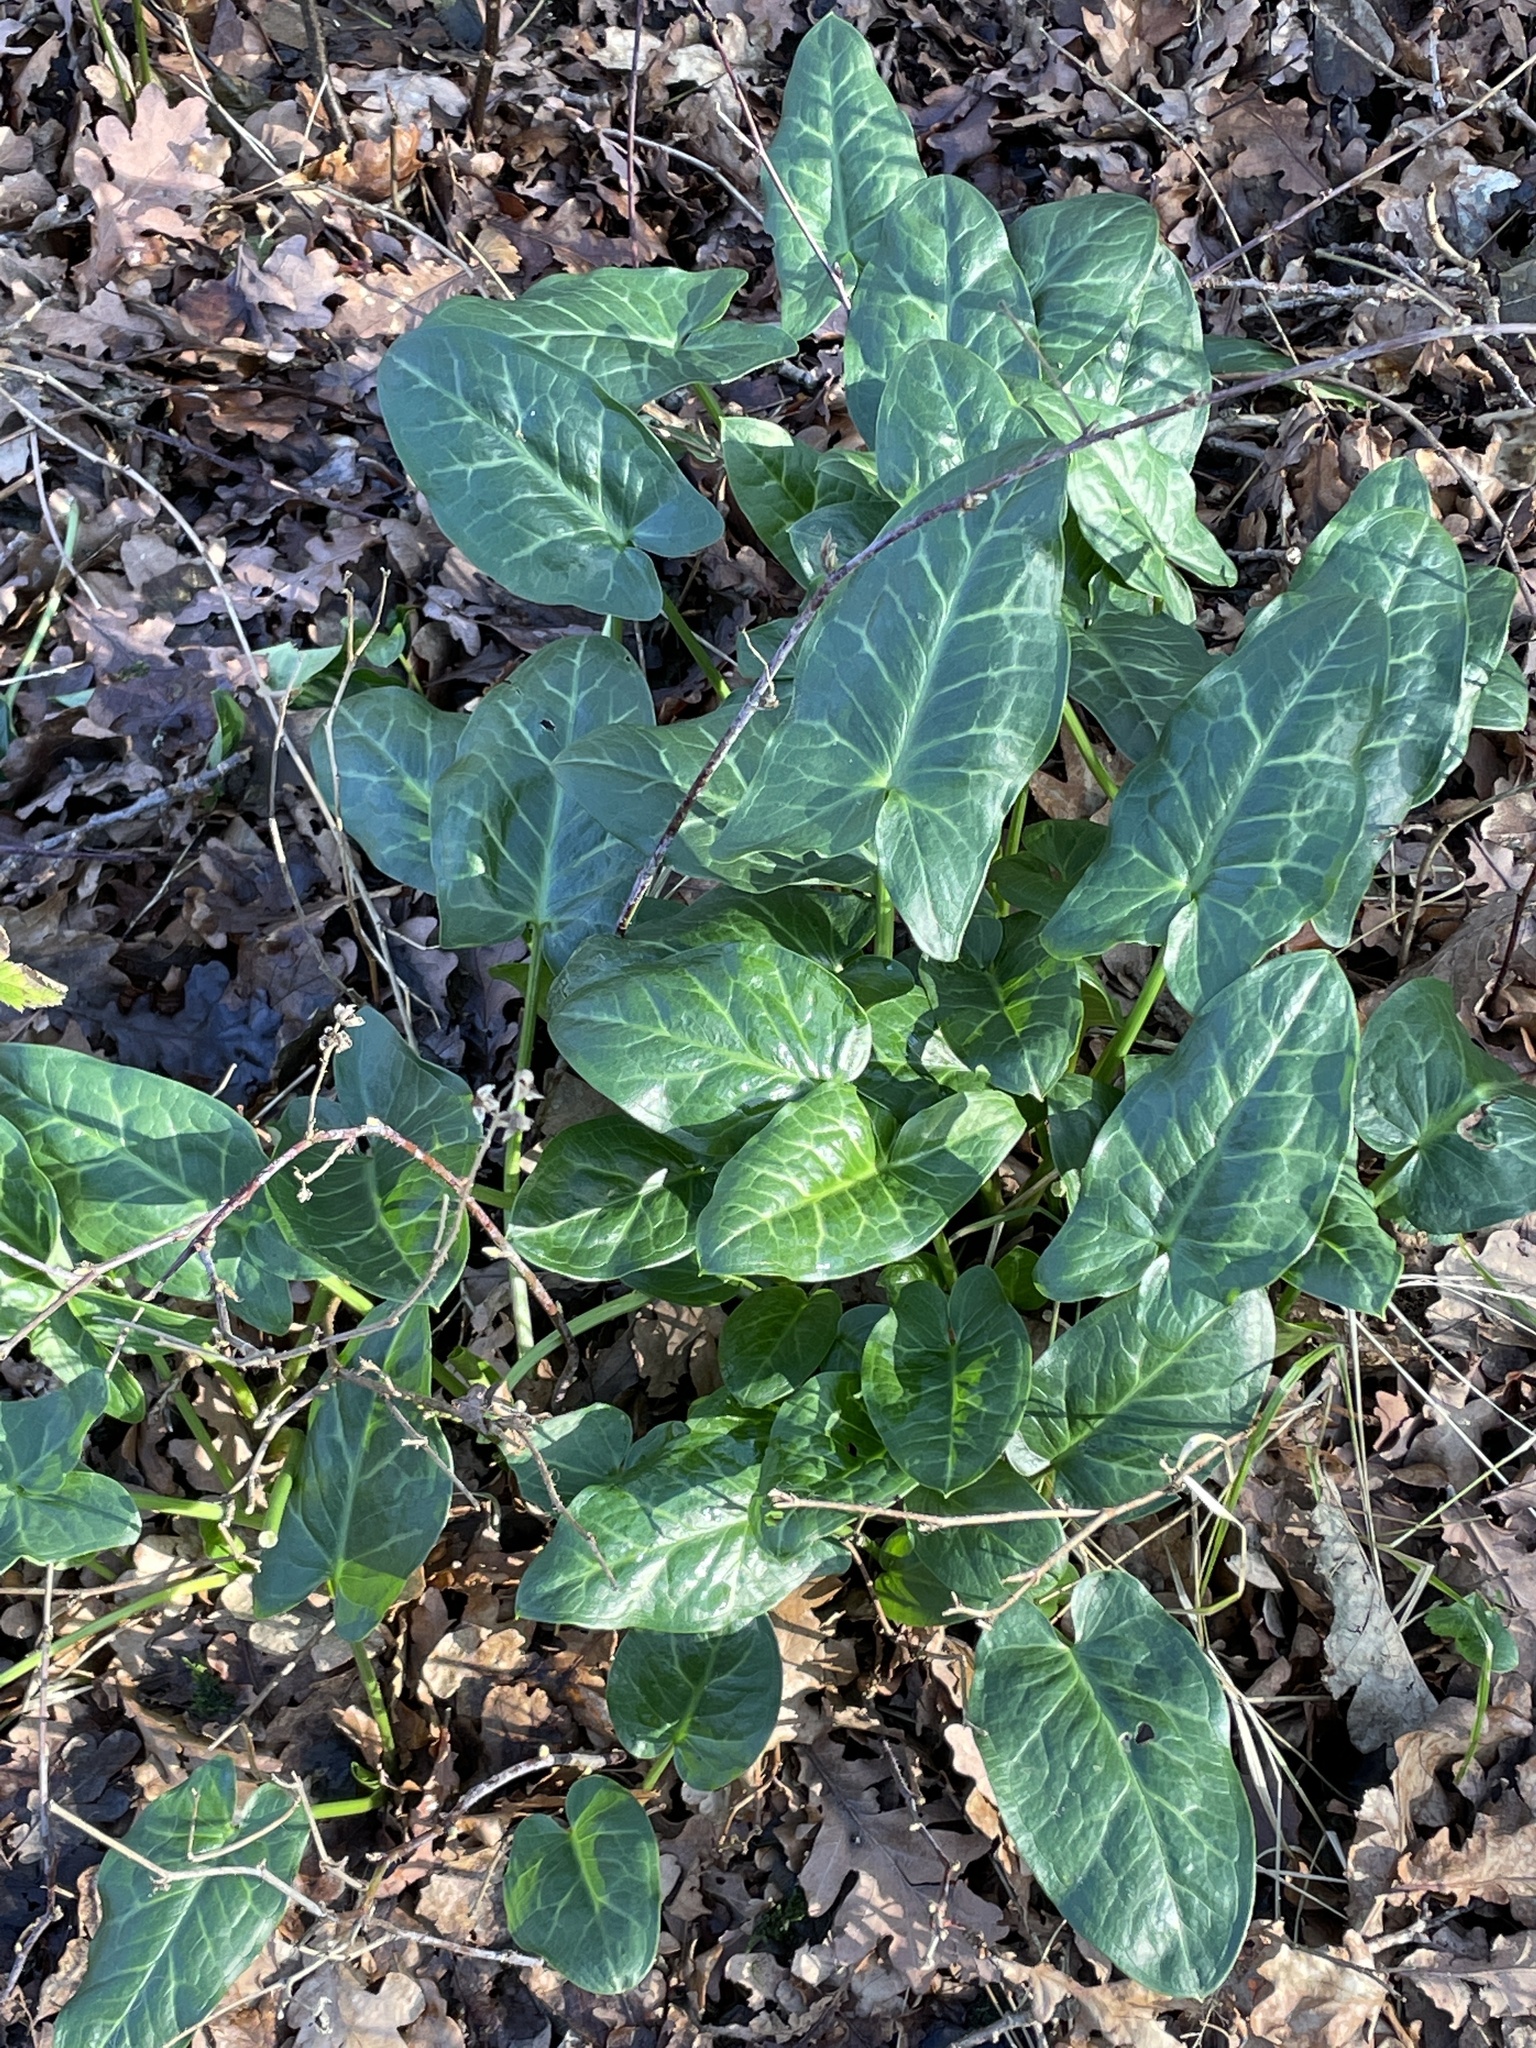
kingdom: Plantae
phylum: Tracheophyta
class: Liliopsida
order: Alismatales
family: Araceae
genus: Arum
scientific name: Arum italicum
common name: Italian lords-and-ladies
